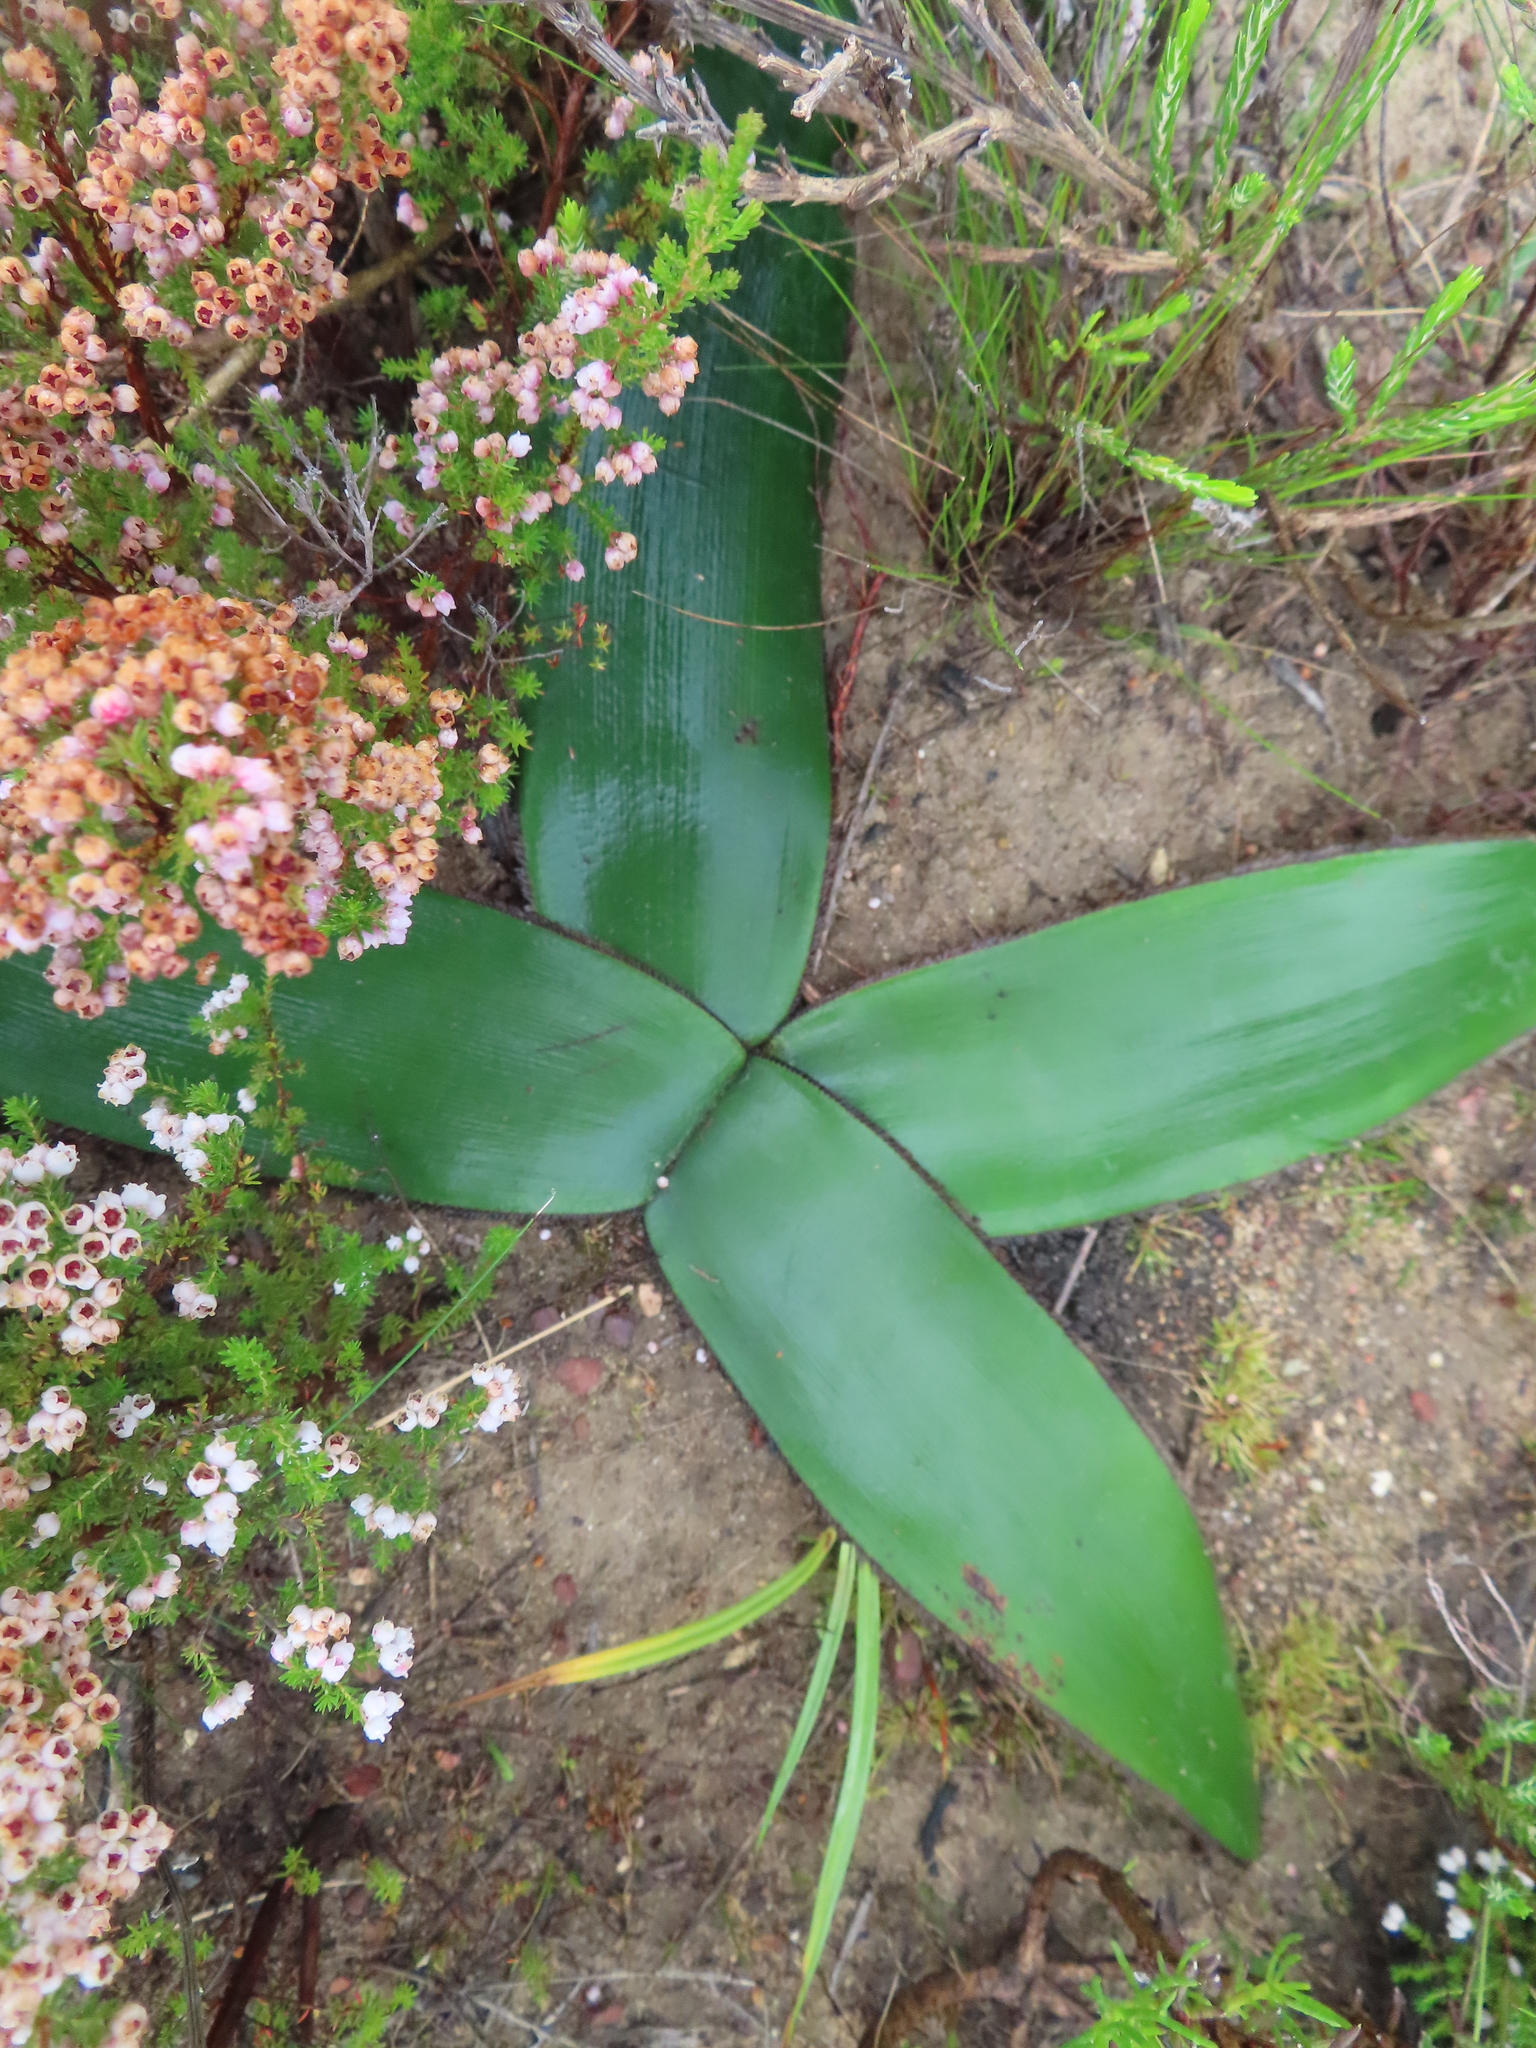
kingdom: Plantae
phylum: Tracheophyta
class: Liliopsida
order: Asparagales
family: Amaryllidaceae
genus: Crossyne
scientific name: Crossyne guttata
